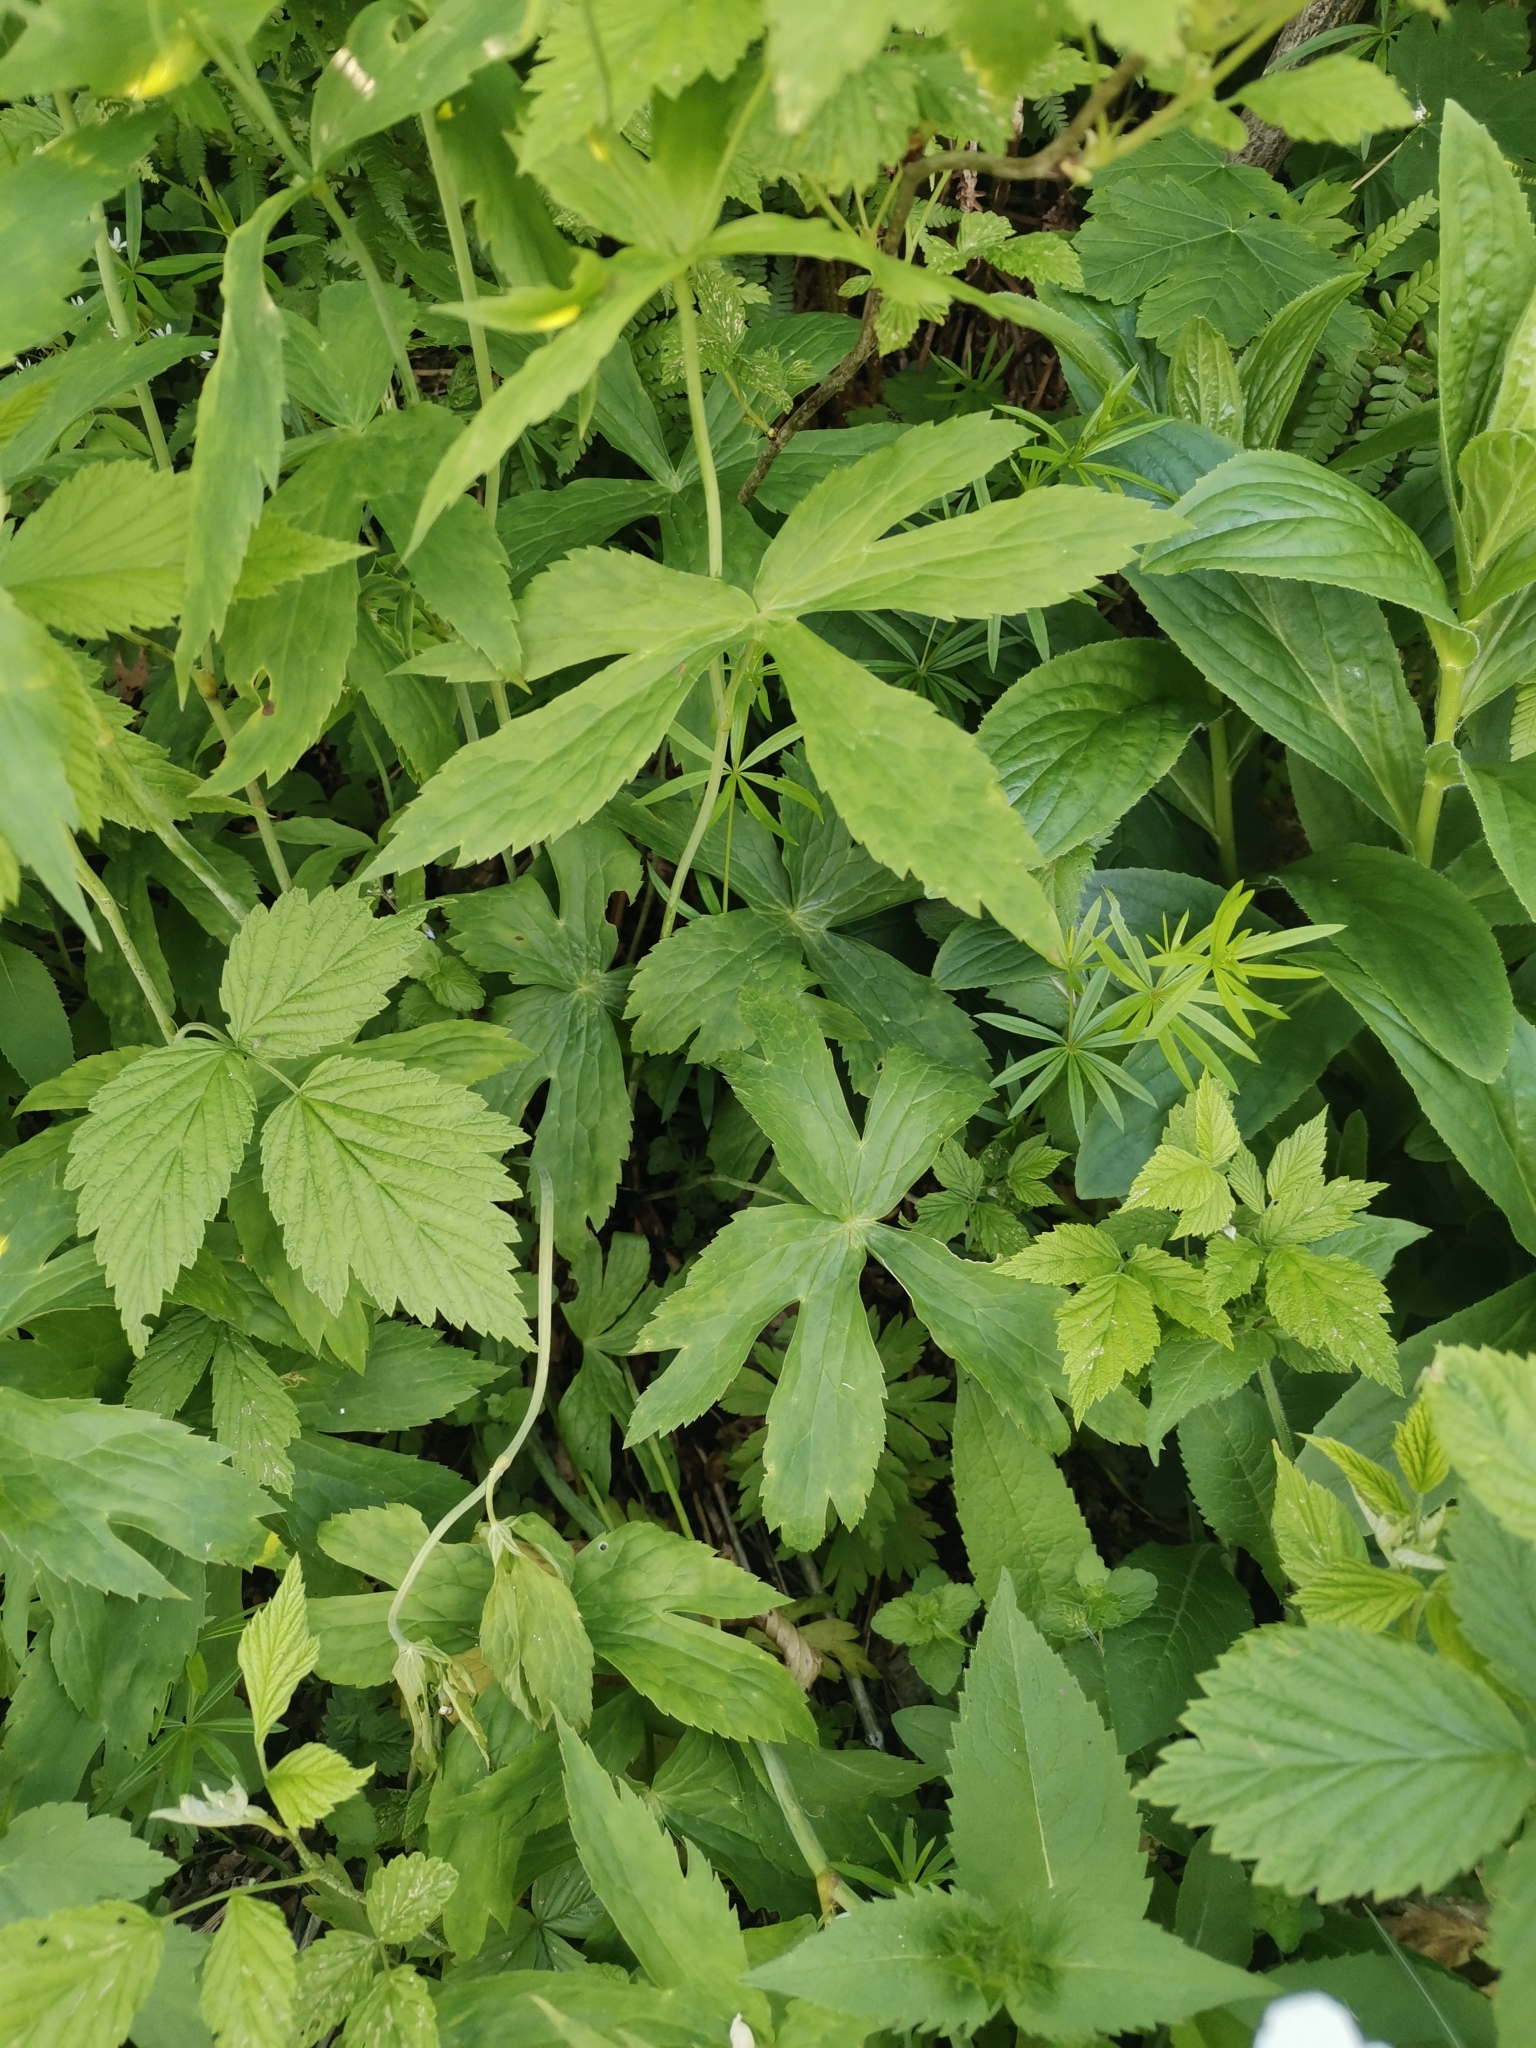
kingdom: Plantae
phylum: Tracheophyta
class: Magnoliopsida
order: Ranunculales
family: Ranunculaceae
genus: Ranunculus
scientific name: Ranunculus platanifolius
